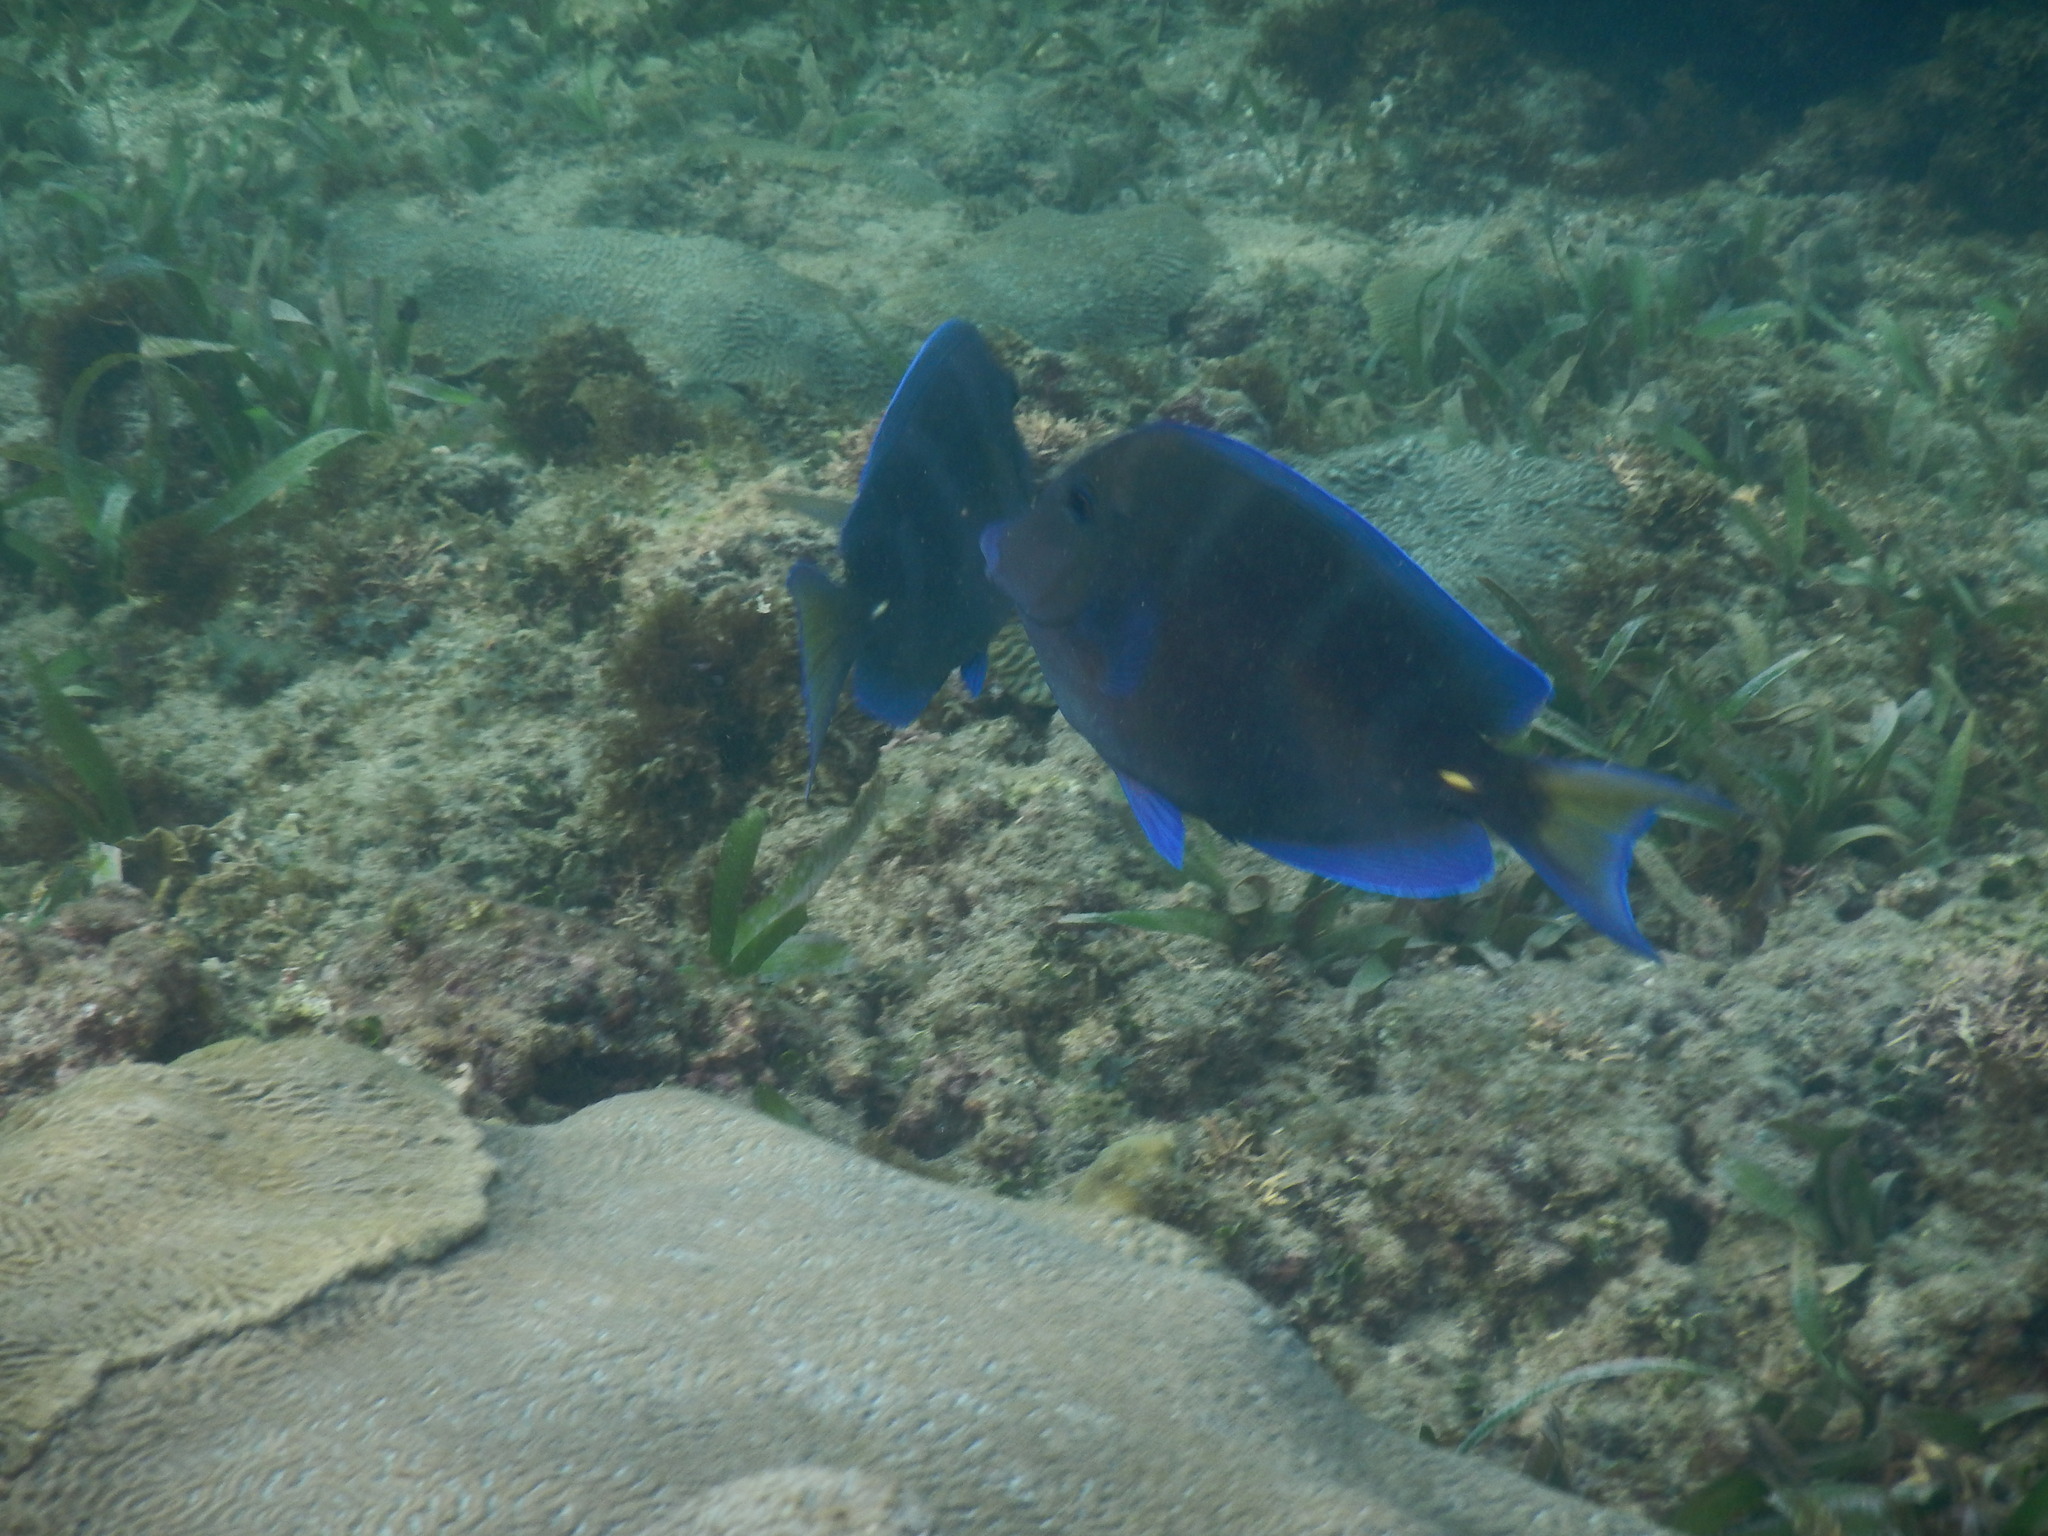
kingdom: Animalia
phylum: Chordata
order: Perciformes
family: Acanthuridae
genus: Acanthurus
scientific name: Acanthurus coeruleus
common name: Blue tang
